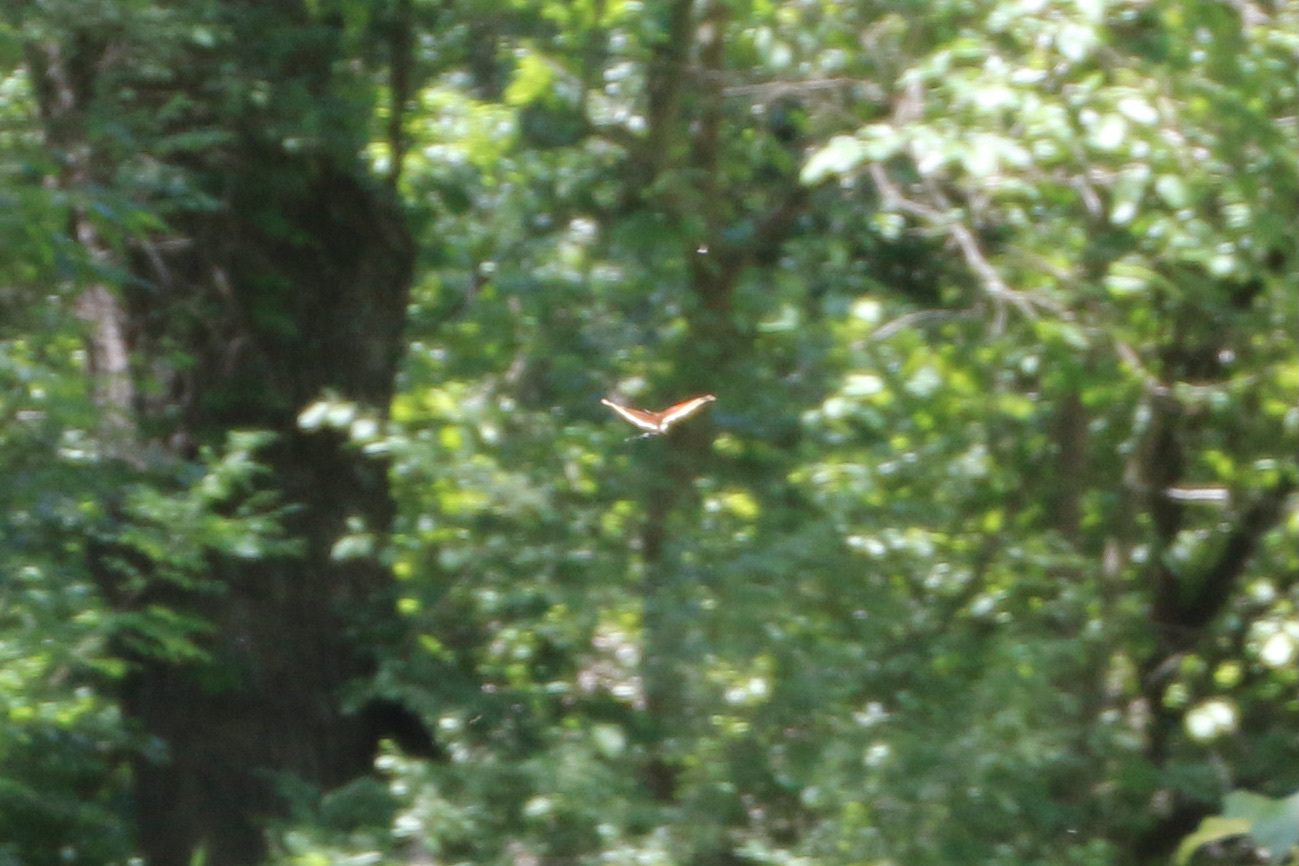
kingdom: Animalia
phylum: Arthropoda
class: Insecta
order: Lepidoptera
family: Nymphalidae
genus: Nymphalis
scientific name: Nymphalis antiopa
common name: Camberwell beauty
